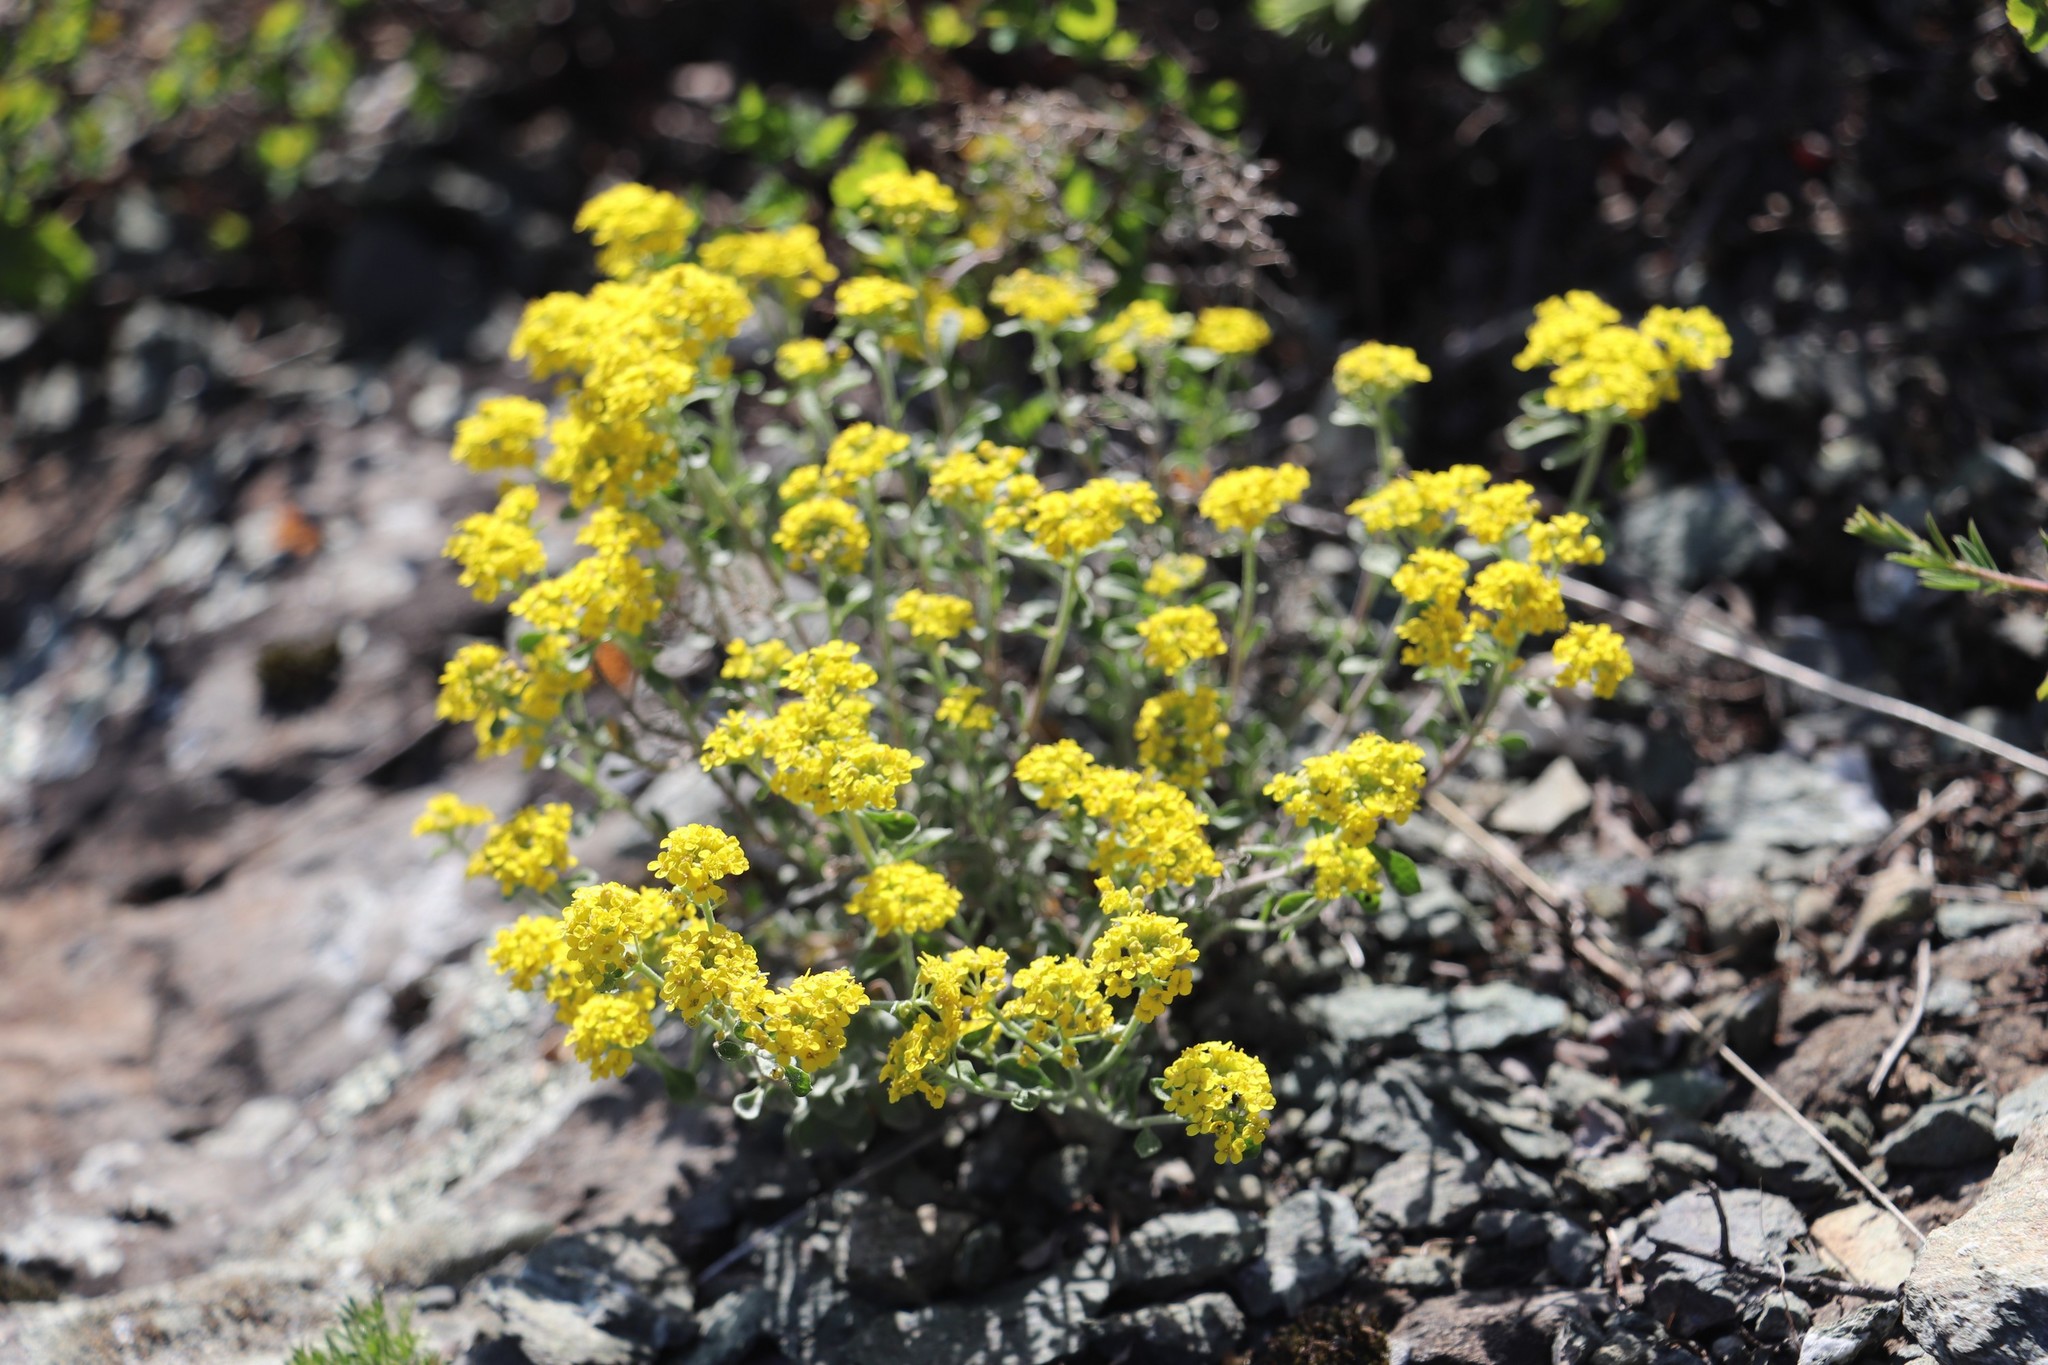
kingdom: Plantae
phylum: Tracheophyta
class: Magnoliopsida
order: Brassicales
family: Brassicaceae
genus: Odontarrhena
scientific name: Odontarrhena obovata
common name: American alyssum
